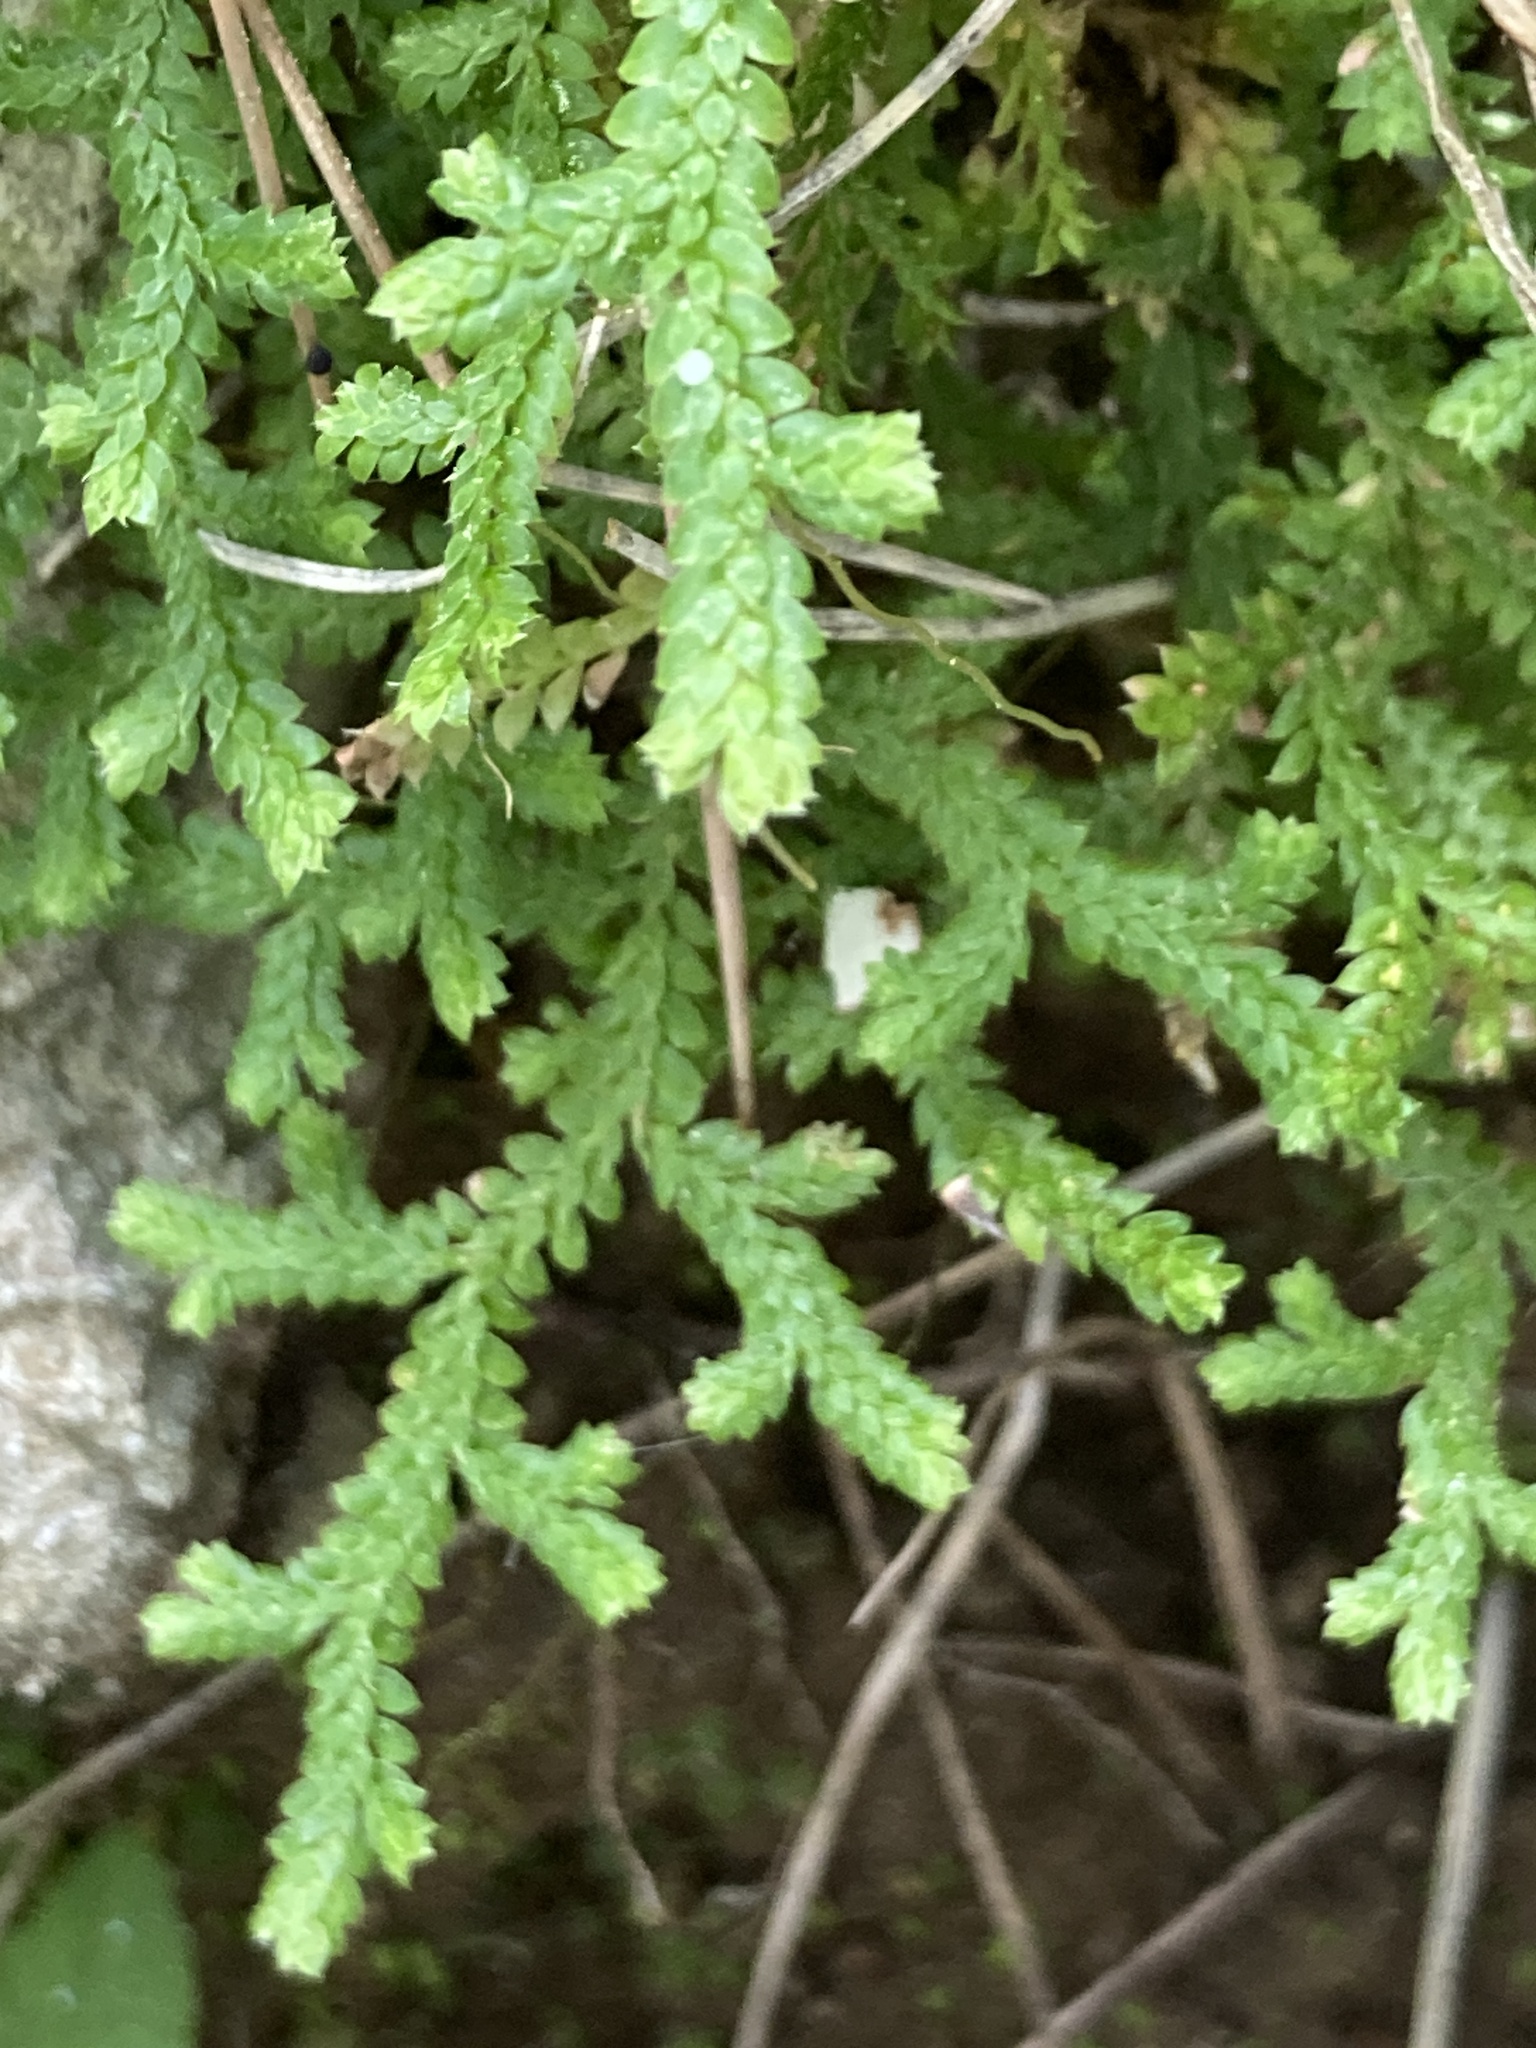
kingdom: Plantae
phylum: Tracheophyta
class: Lycopodiopsida
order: Selaginellales
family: Selaginellaceae
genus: Selaginella
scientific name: Selaginella denticulata
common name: Toothed-leaved clubmoss
